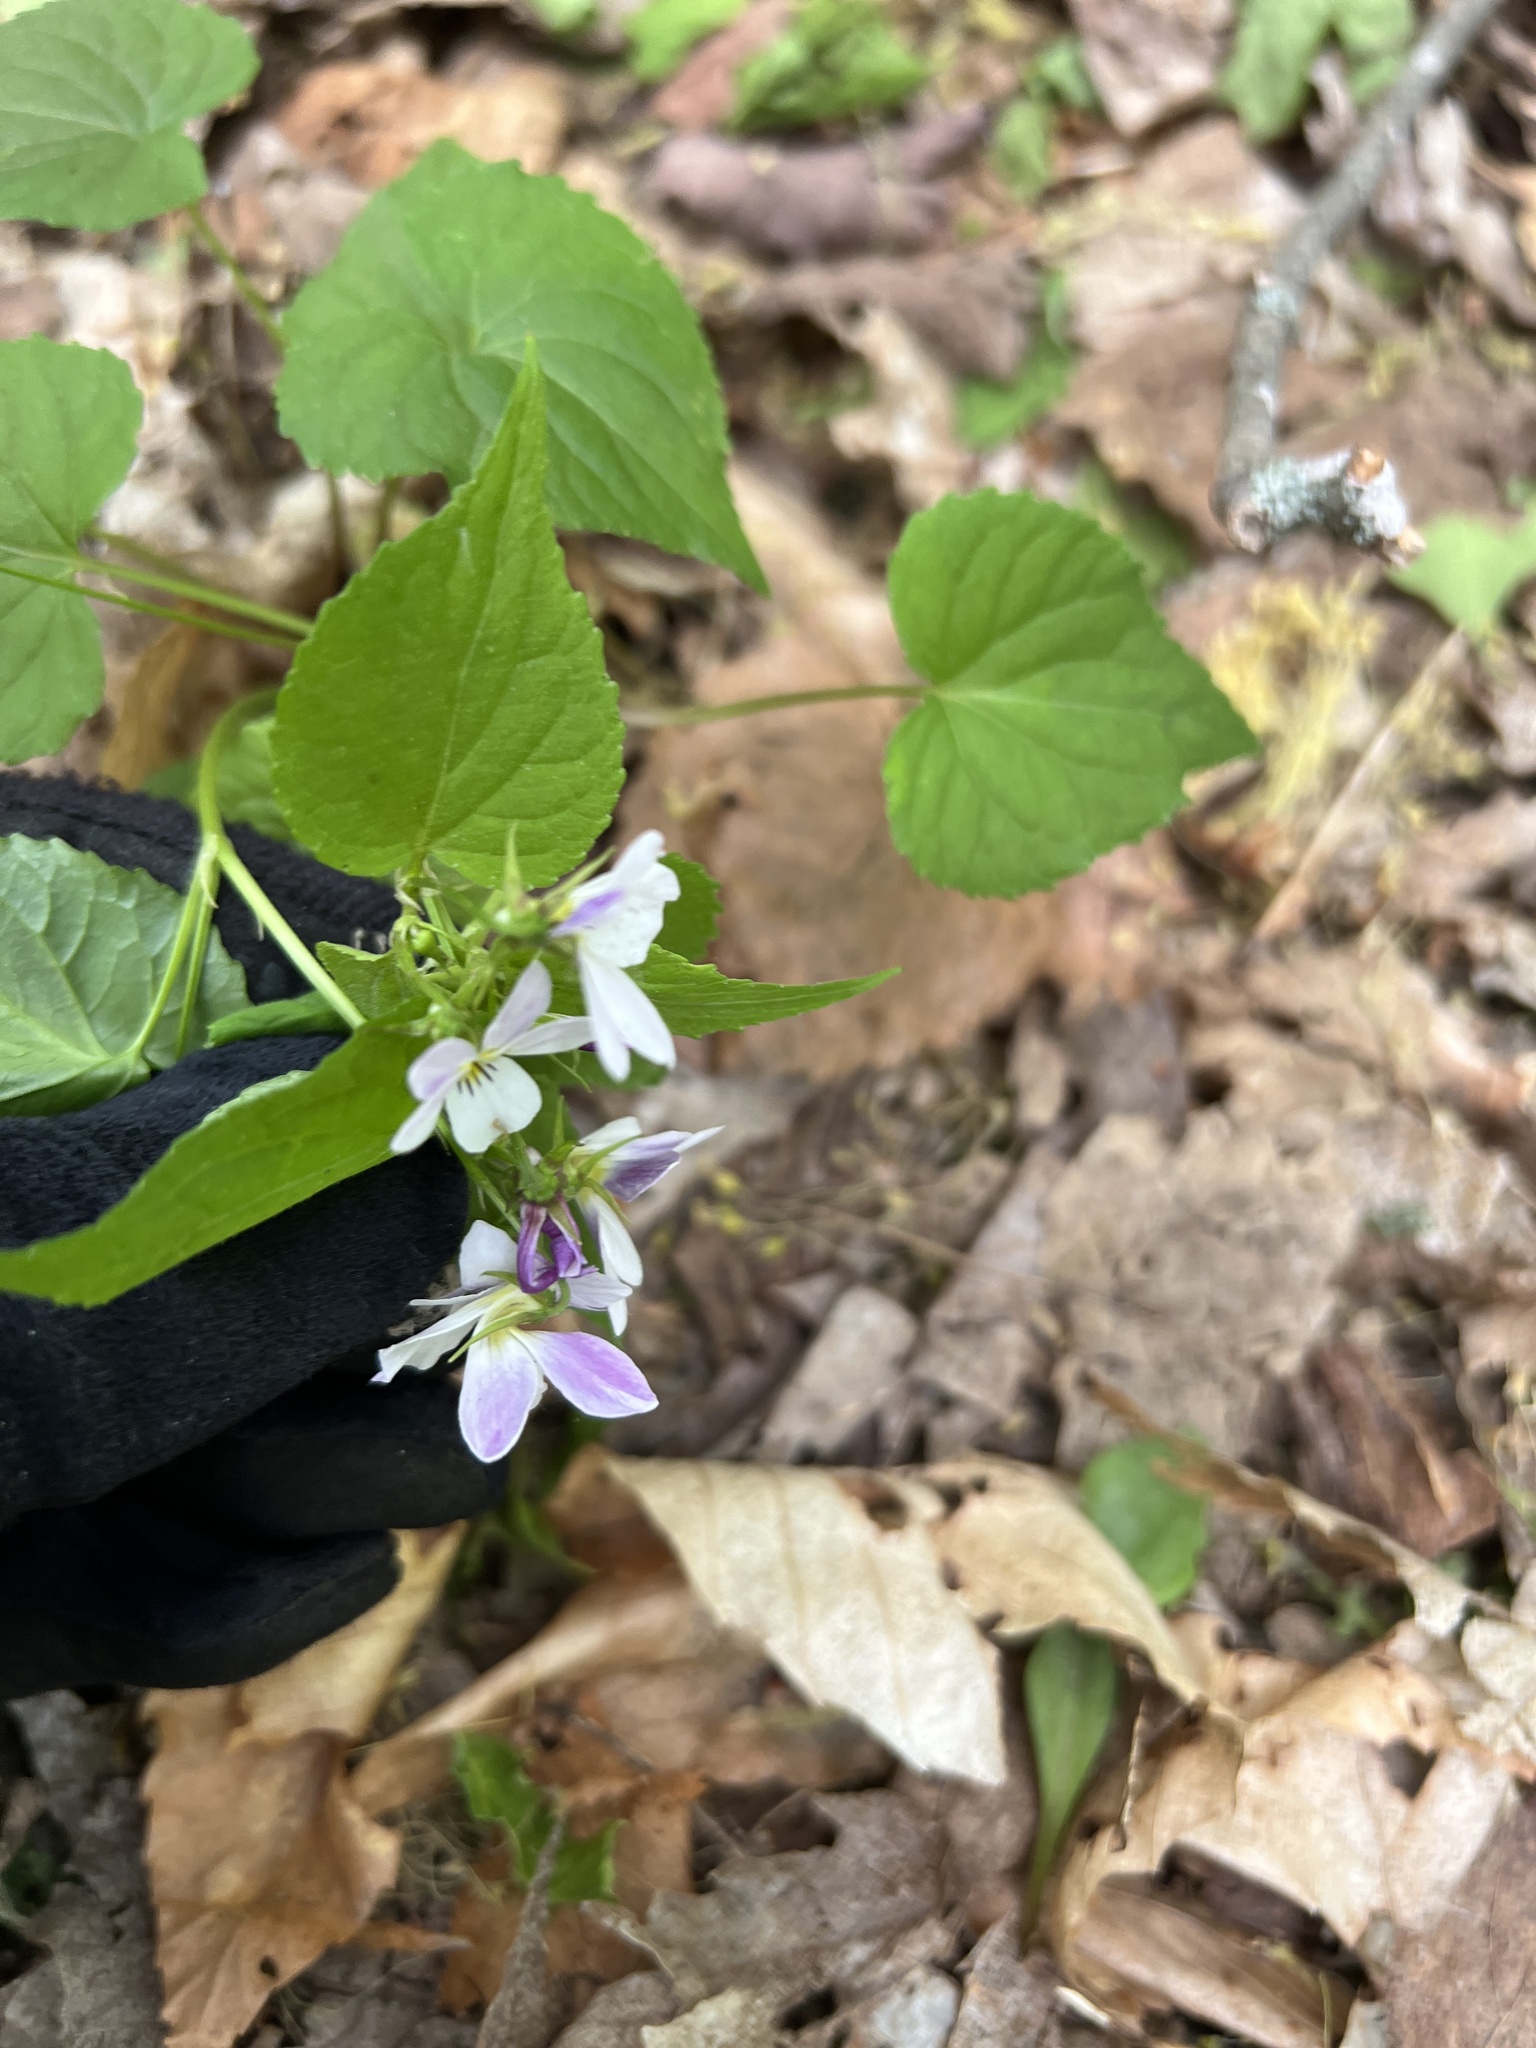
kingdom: Plantae
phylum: Tracheophyta
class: Magnoliopsida
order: Malpighiales
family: Violaceae
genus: Viola
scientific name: Viola canadensis
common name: Canada violet
